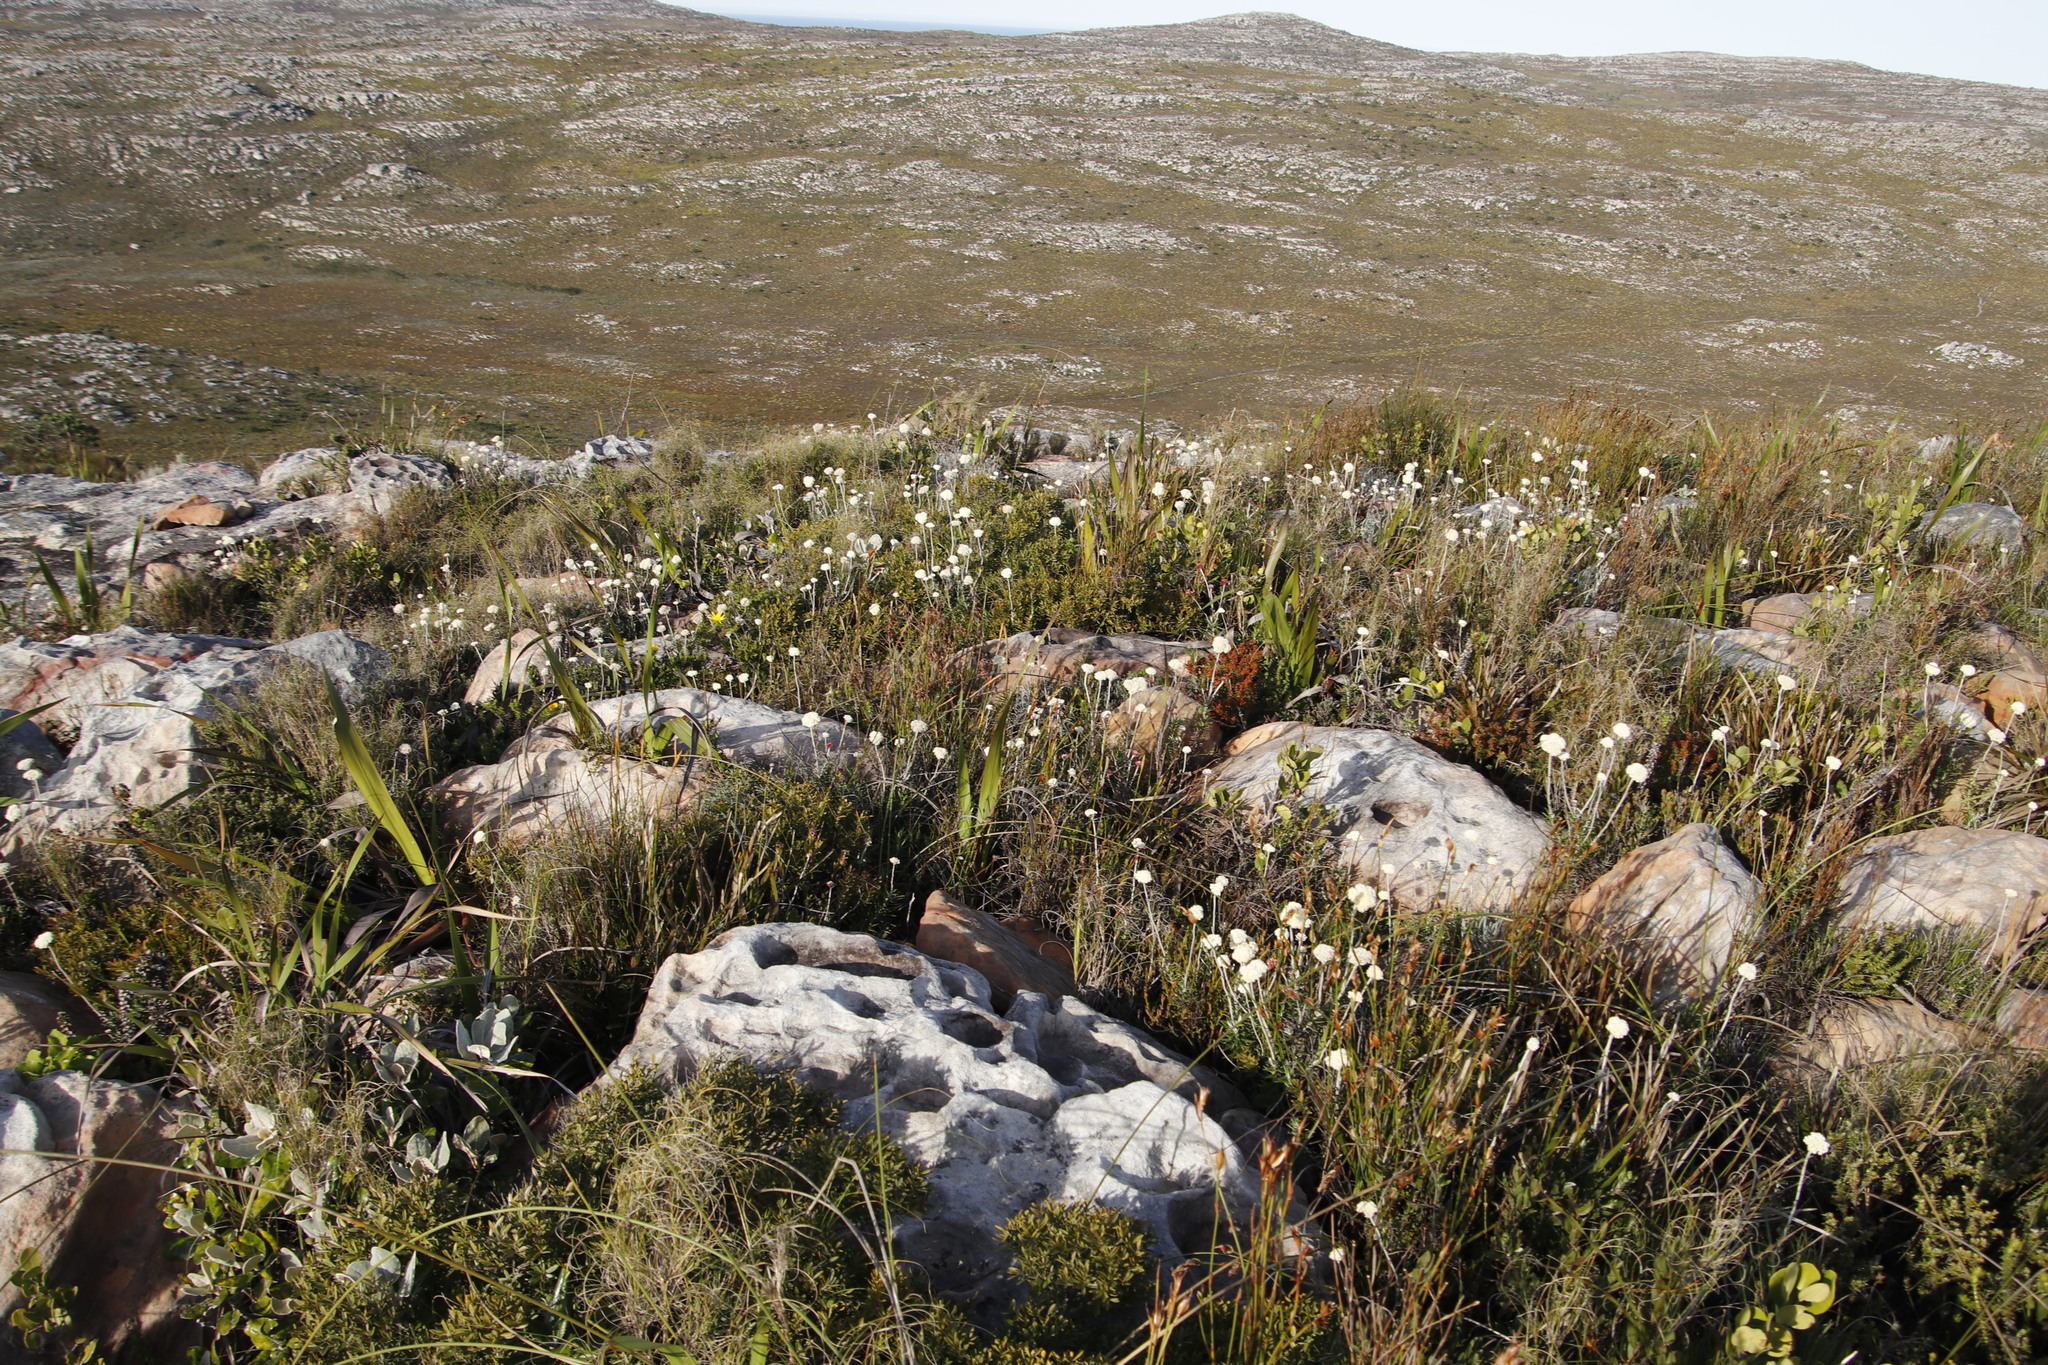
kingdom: Plantae
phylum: Tracheophyta
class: Magnoliopsida
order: Asterales
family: Asteraceae
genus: Anaxeton
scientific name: Anaxeton laeve
